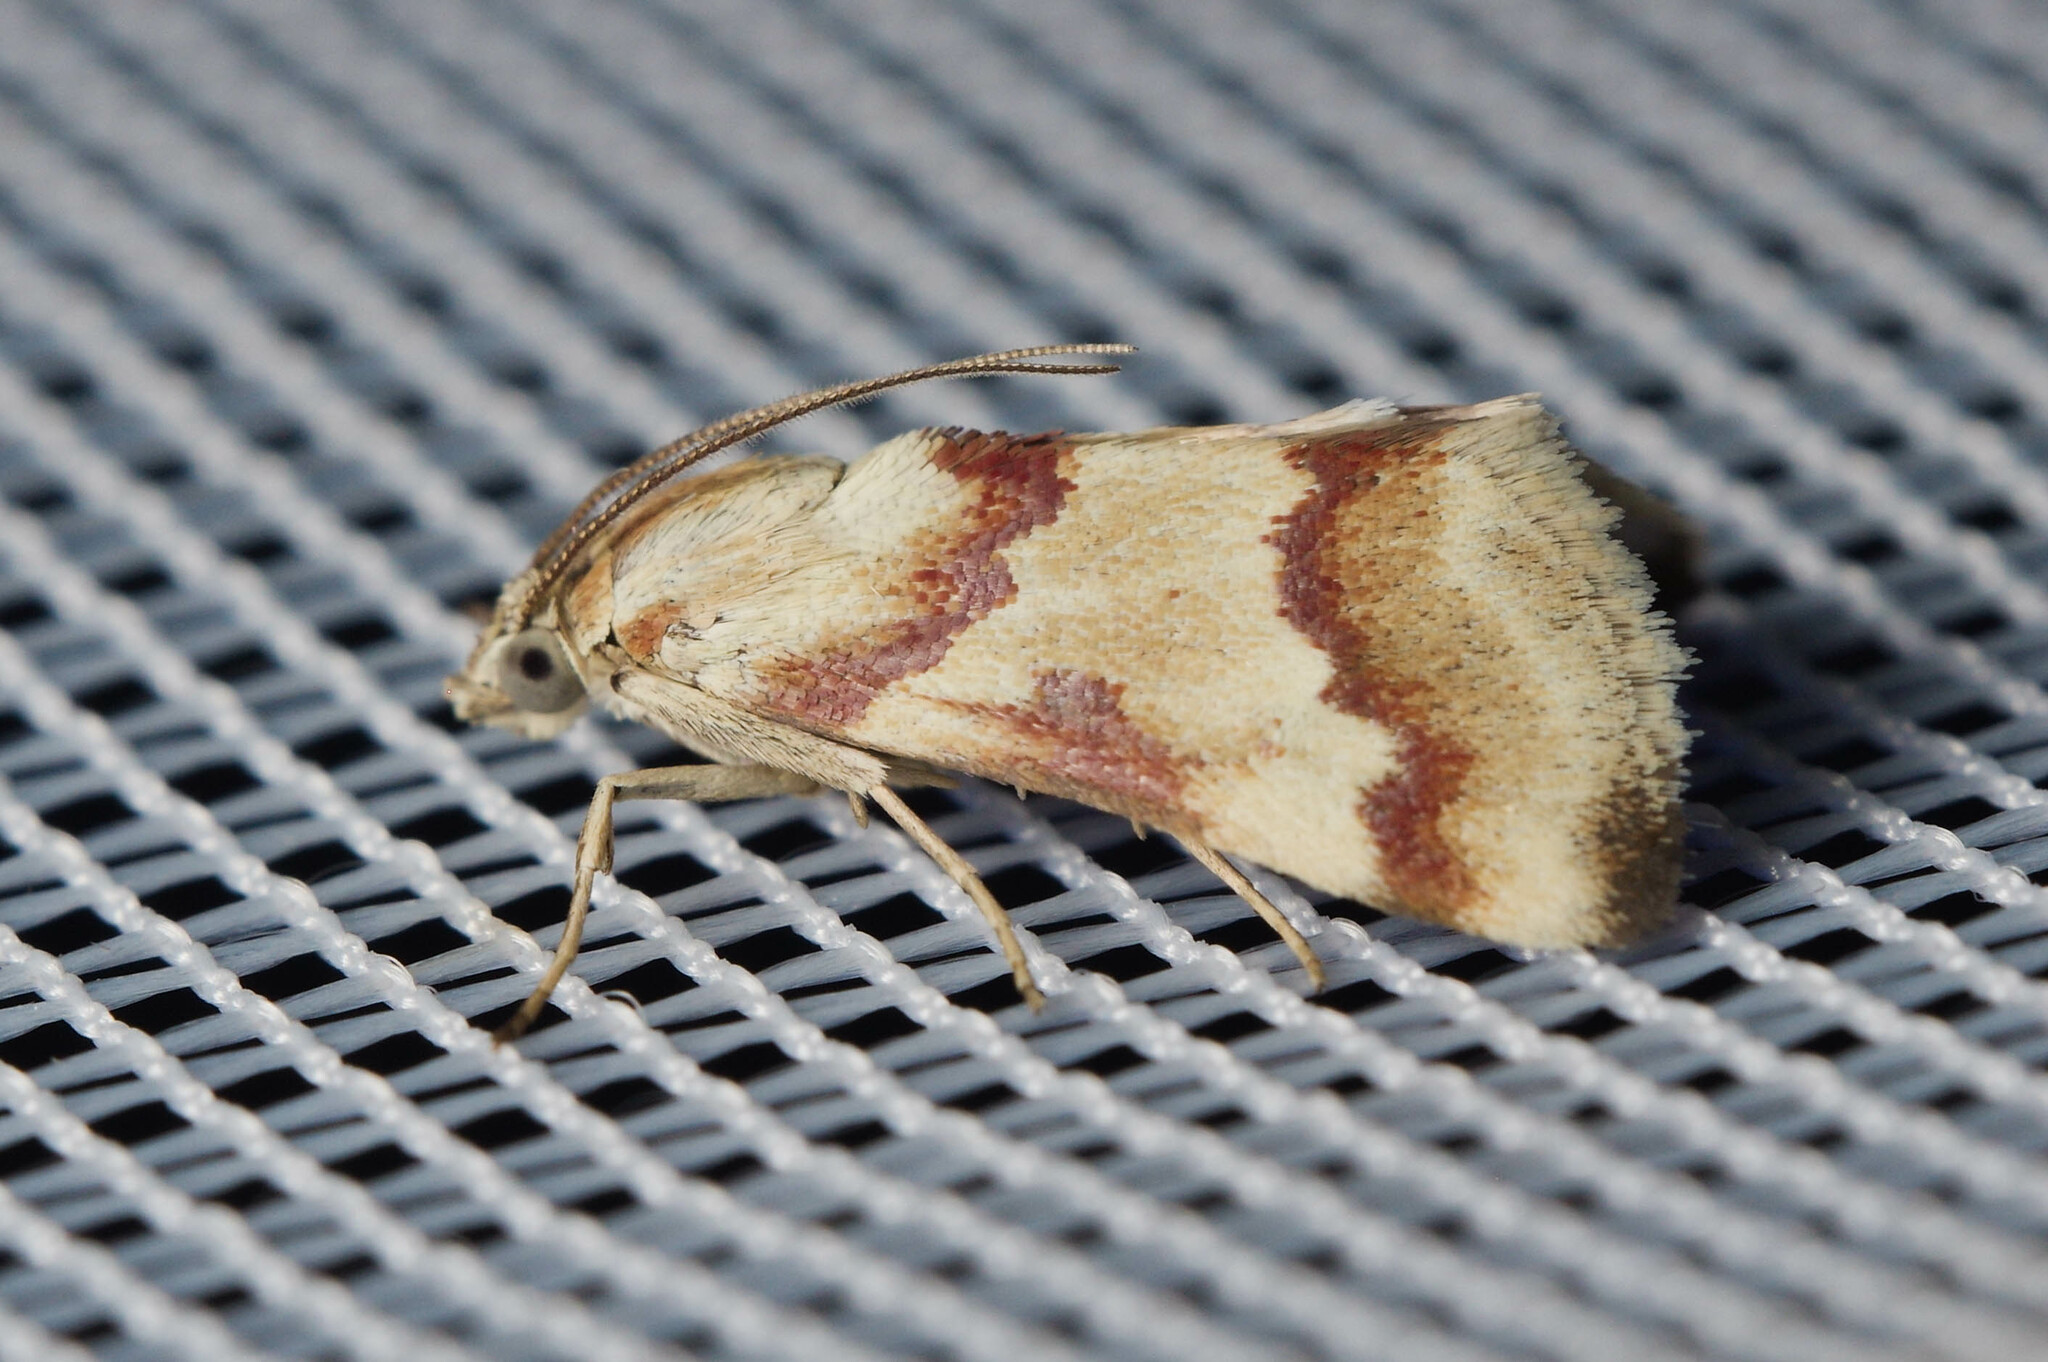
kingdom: Animalia
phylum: Arthropoda
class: Insecta
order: Lepidoptera
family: Crambidae
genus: Noctuelia
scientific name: Noctuelia Mimoschinia rufofascialis
